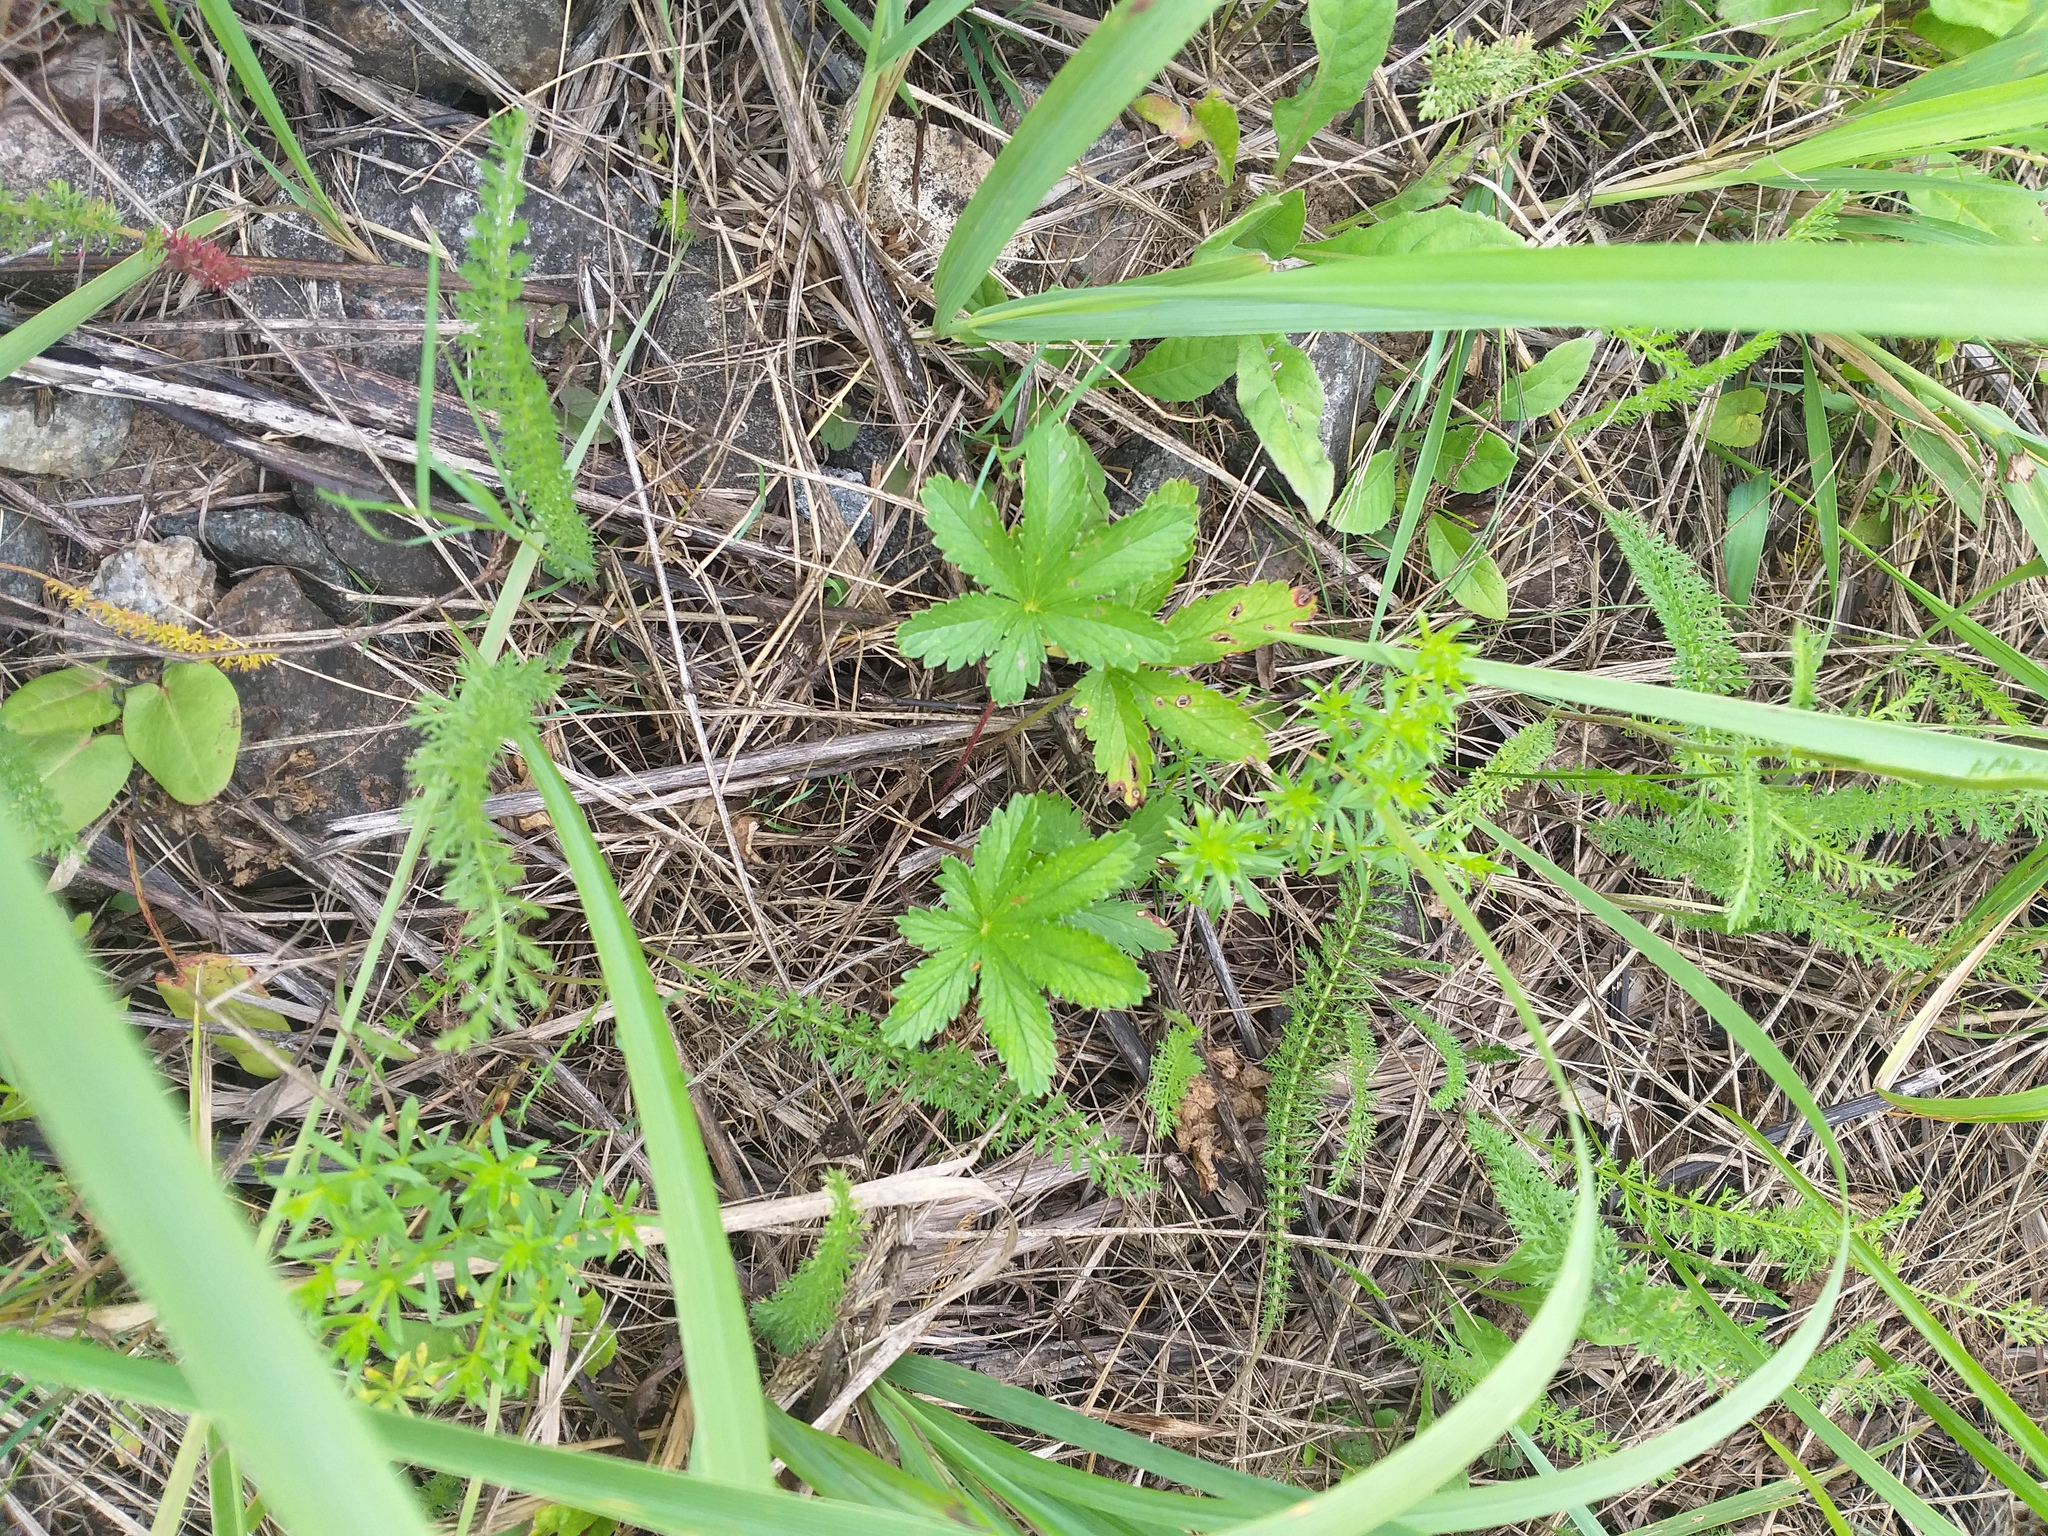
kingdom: Plantae
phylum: Tracheophyta
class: Magnoliopsida
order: Rosales
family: Rosaceae
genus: Potentilla
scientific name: Potentilla thuringiaca
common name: European cinquefoil
